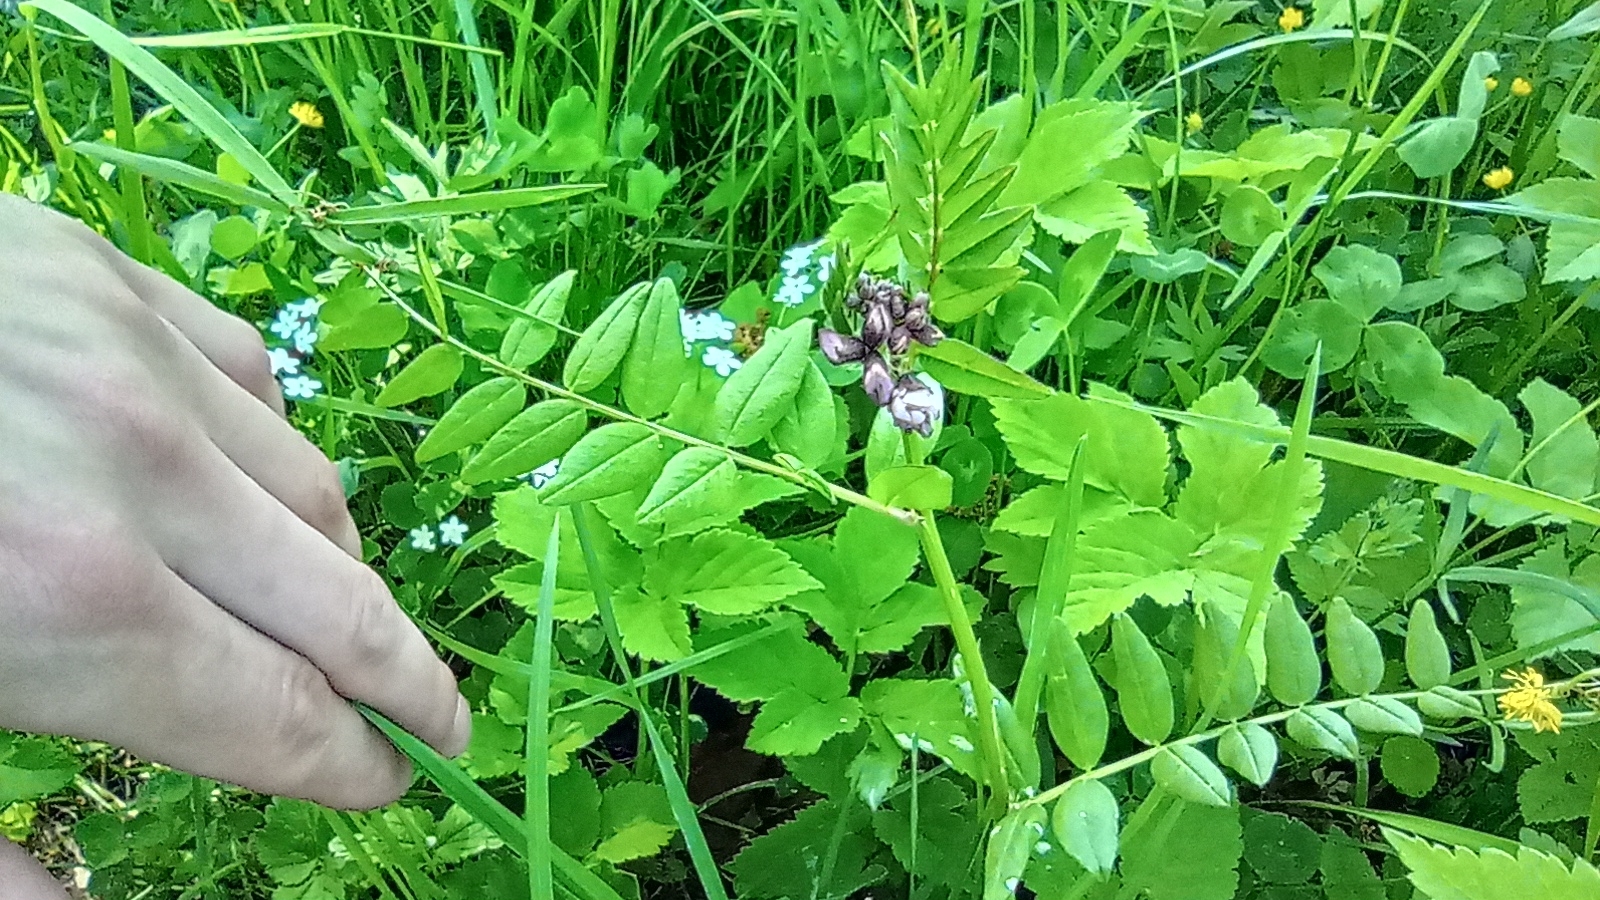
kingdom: Plantae
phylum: Tracheophyta
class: Magnoliopsida
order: Fabales
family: Fabaceae
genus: Vicia
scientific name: Vicia sepium
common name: Bush vetch
